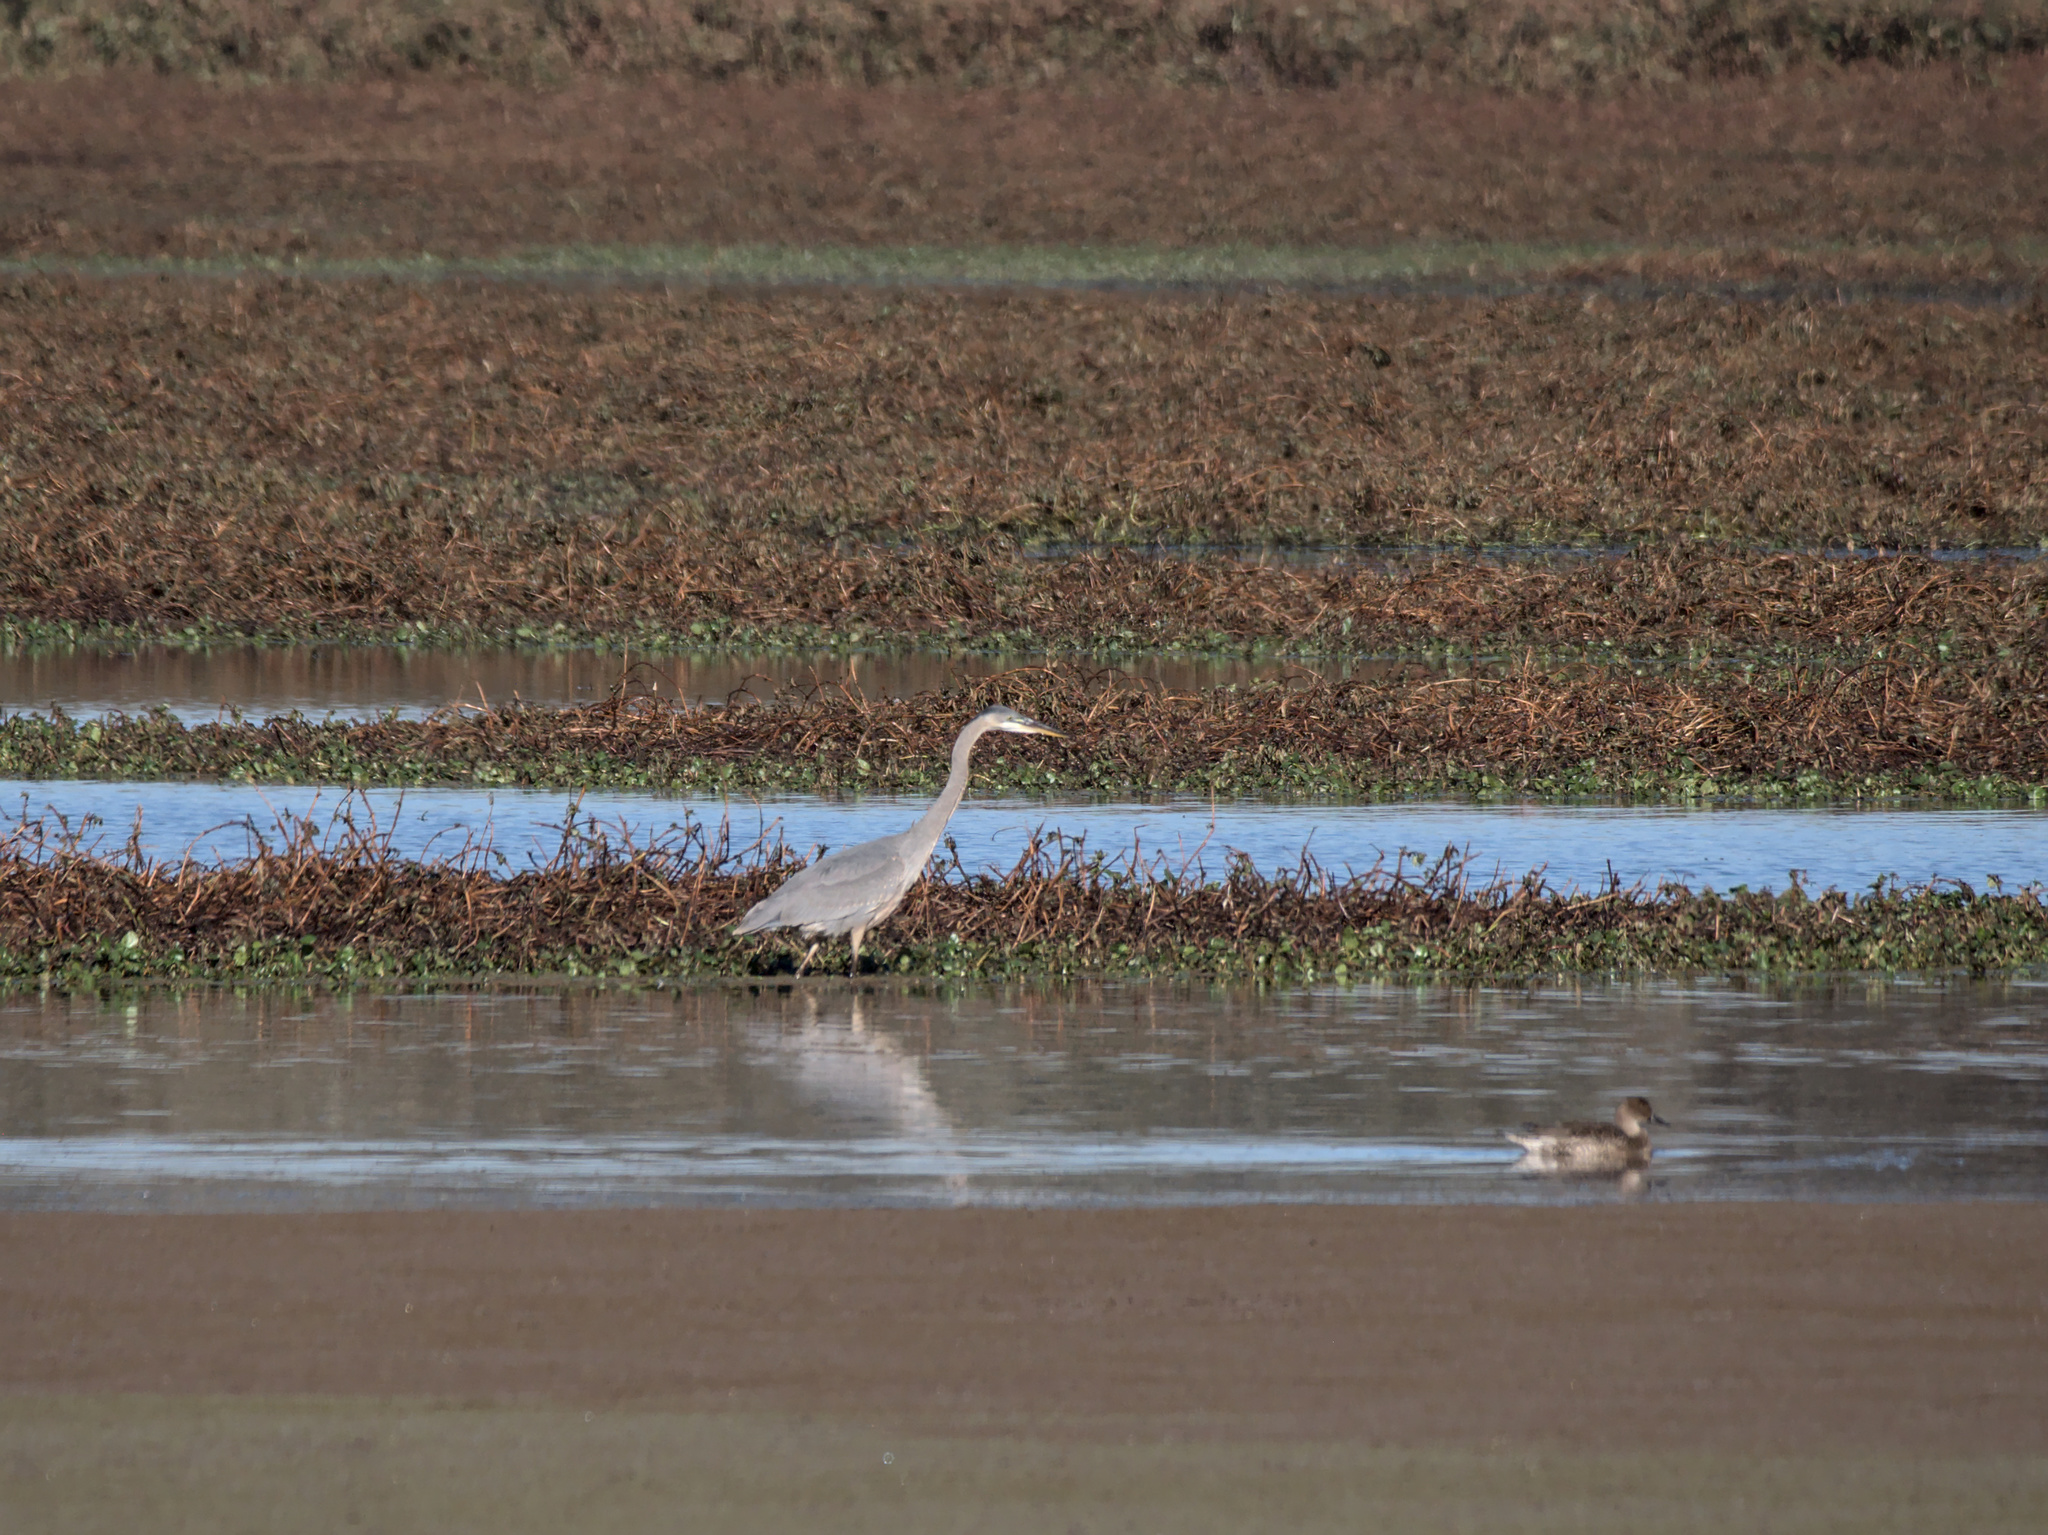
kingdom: Animalia
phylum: Chordata
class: Aves
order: Pelecaniformes
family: Ardeidae
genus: Ardea
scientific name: Ardea herodias
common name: Great blue heron
